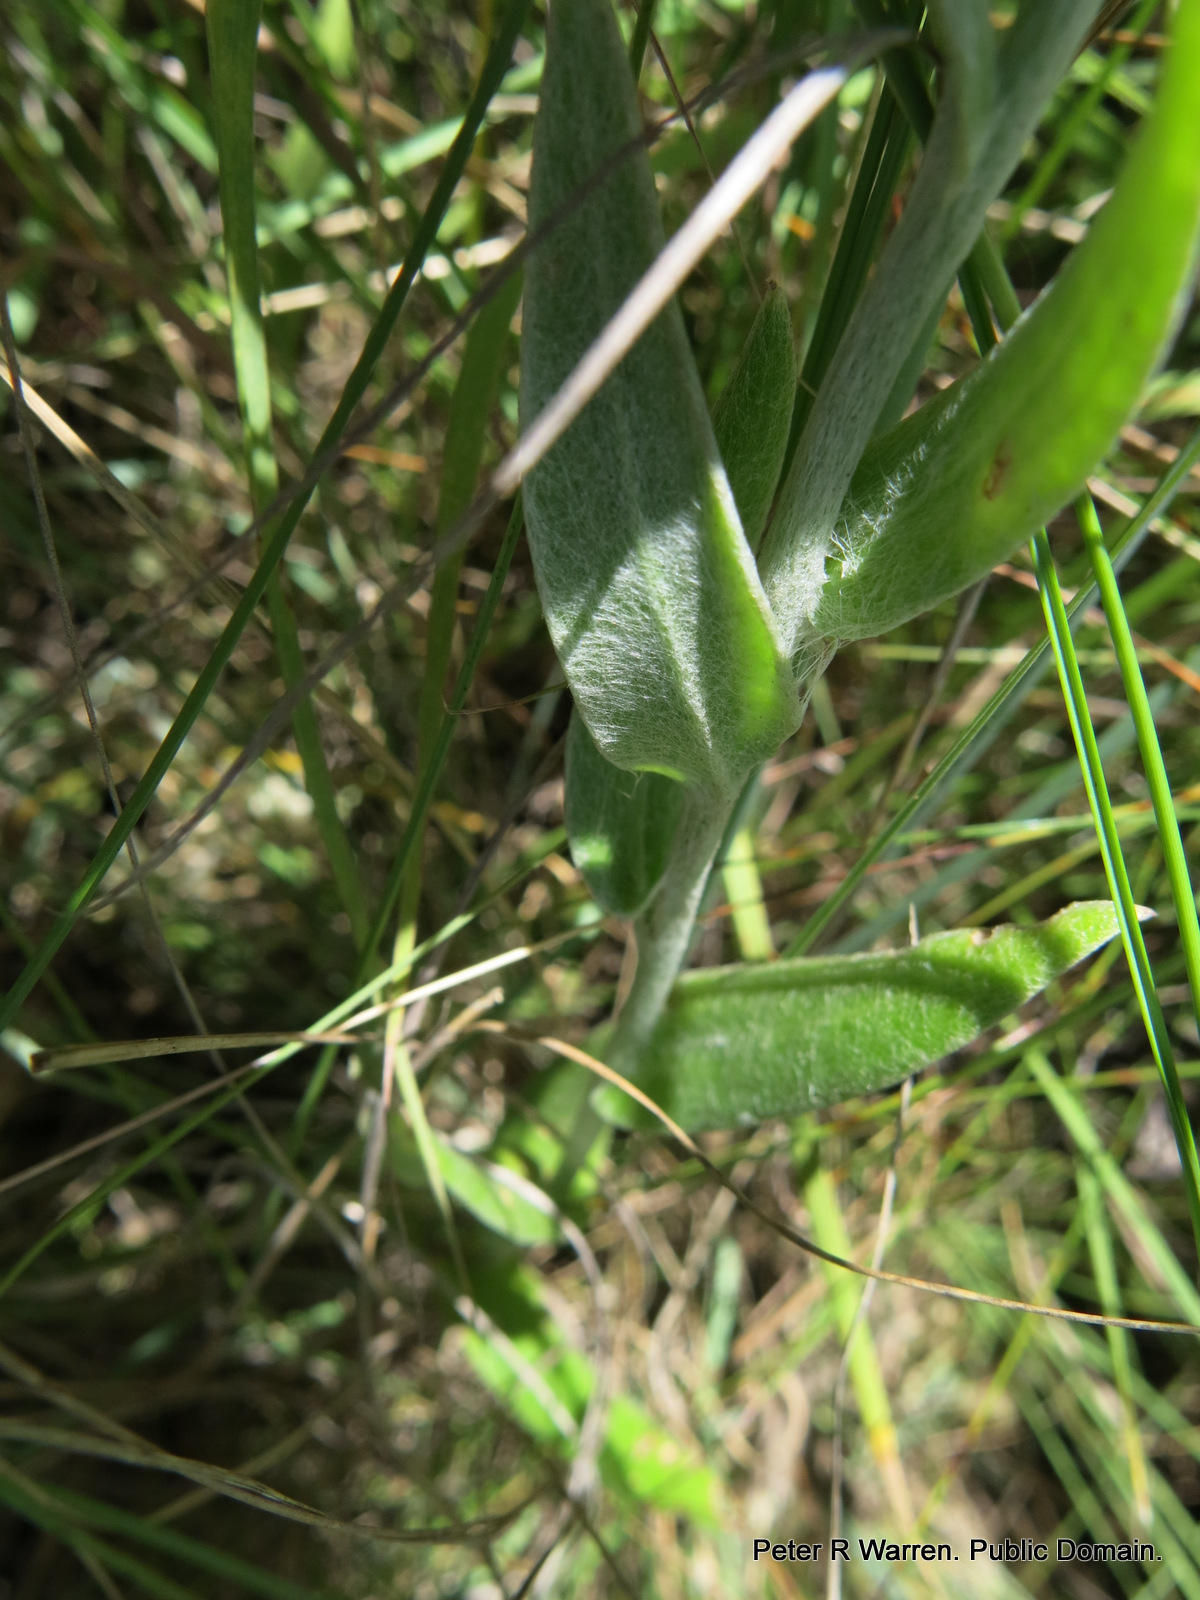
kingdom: Plantae
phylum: Tracheophyta
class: Magnoliopsida
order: Asterales
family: Asteraceae
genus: Helichrysum
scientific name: Helichrysum mixtum
